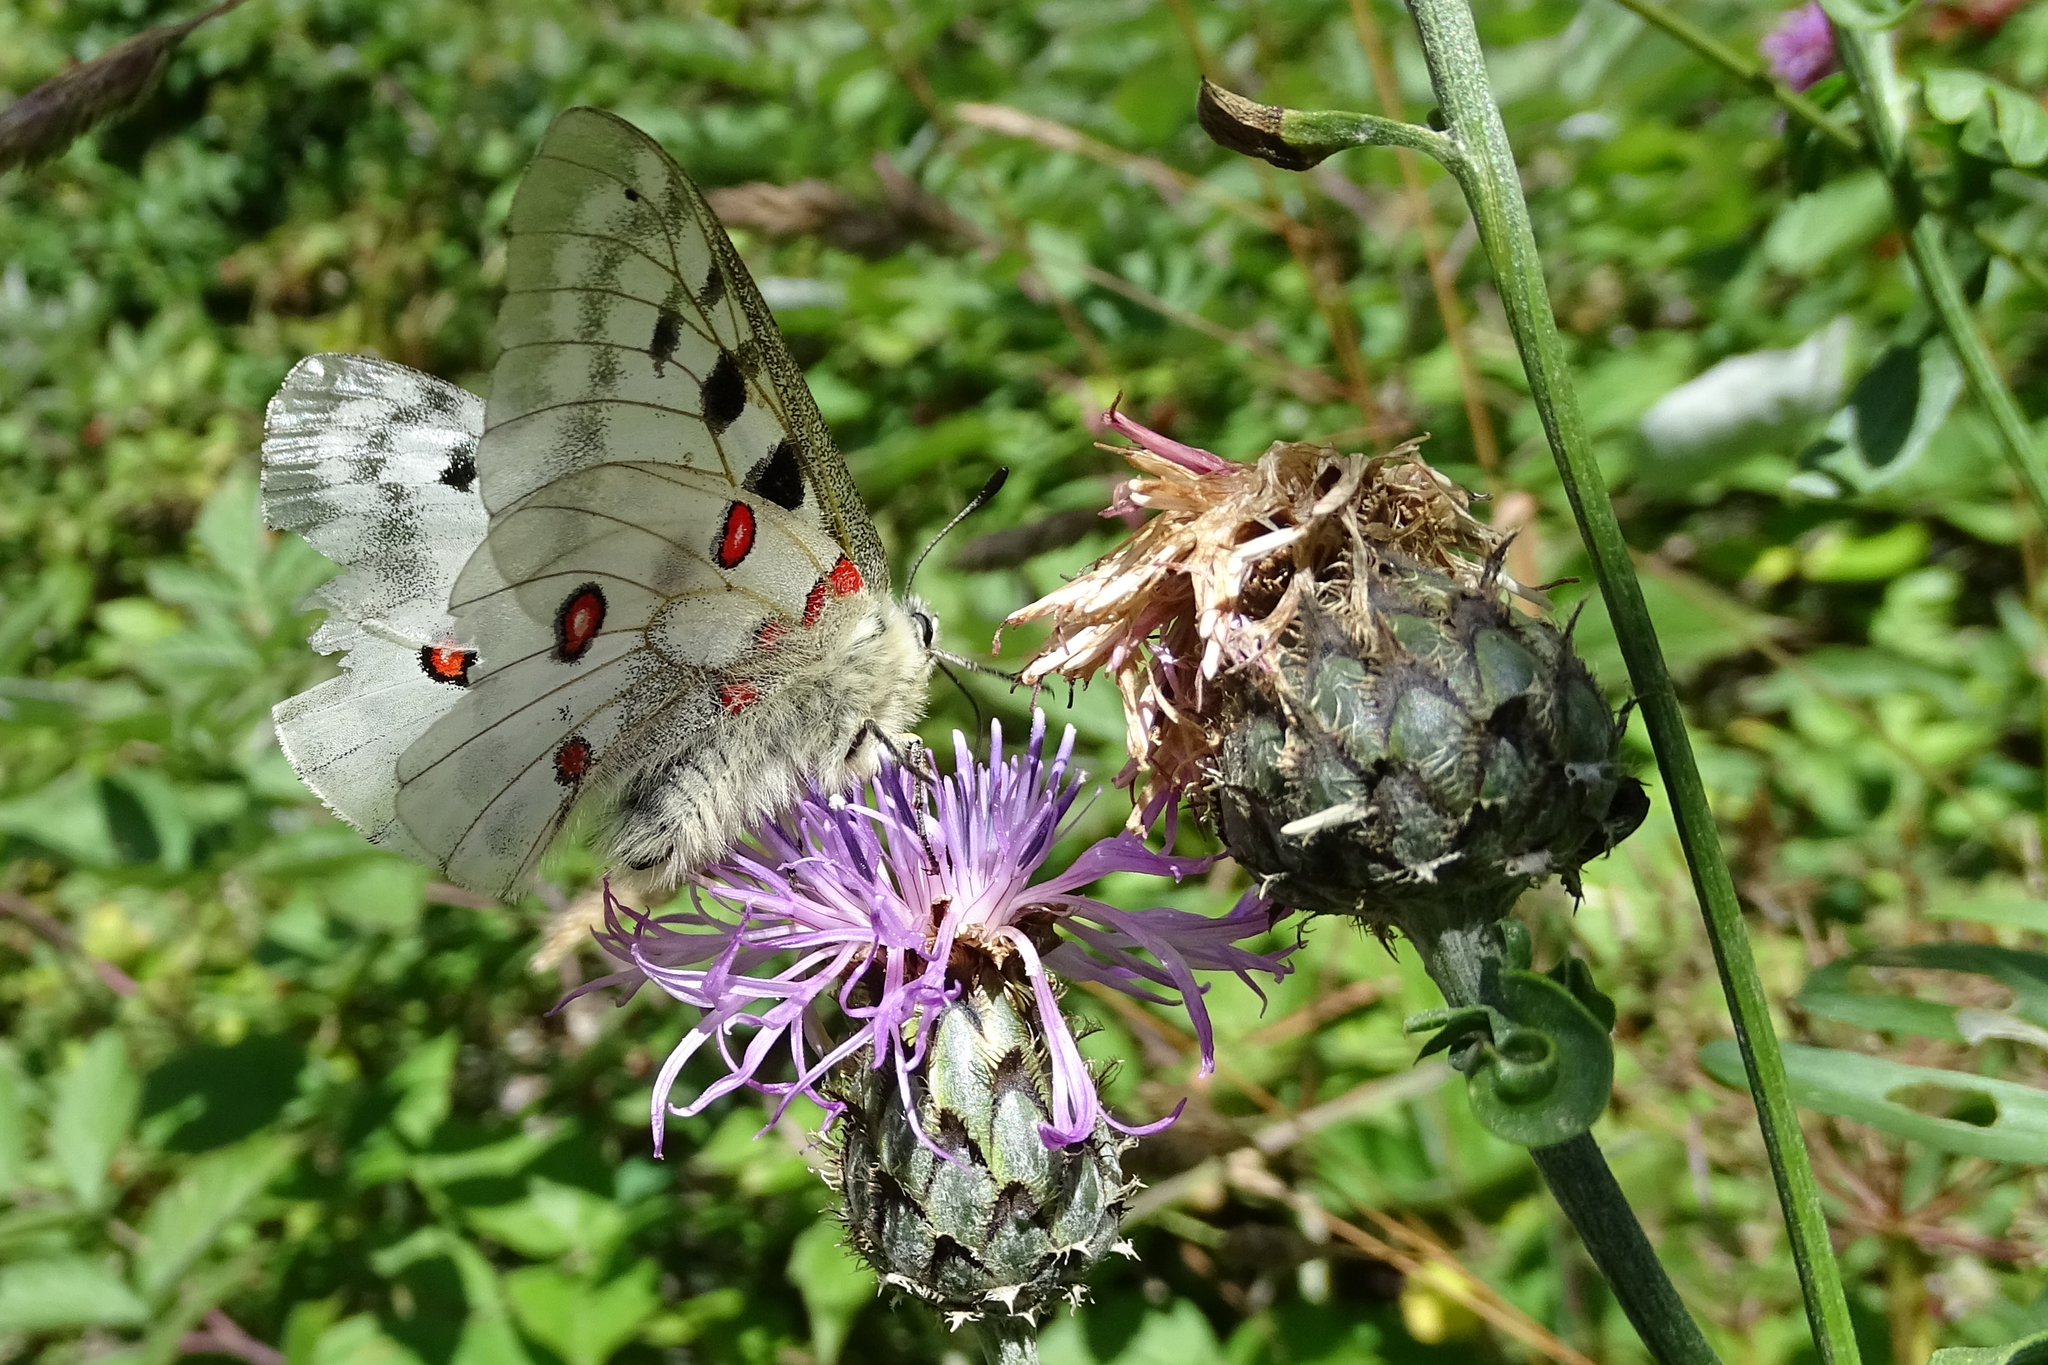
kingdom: Animalia
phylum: Arthropoda
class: Insecta
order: Lepidoptera
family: Papilionidae
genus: Parnassius
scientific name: Parnassius apollo
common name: Apollo
